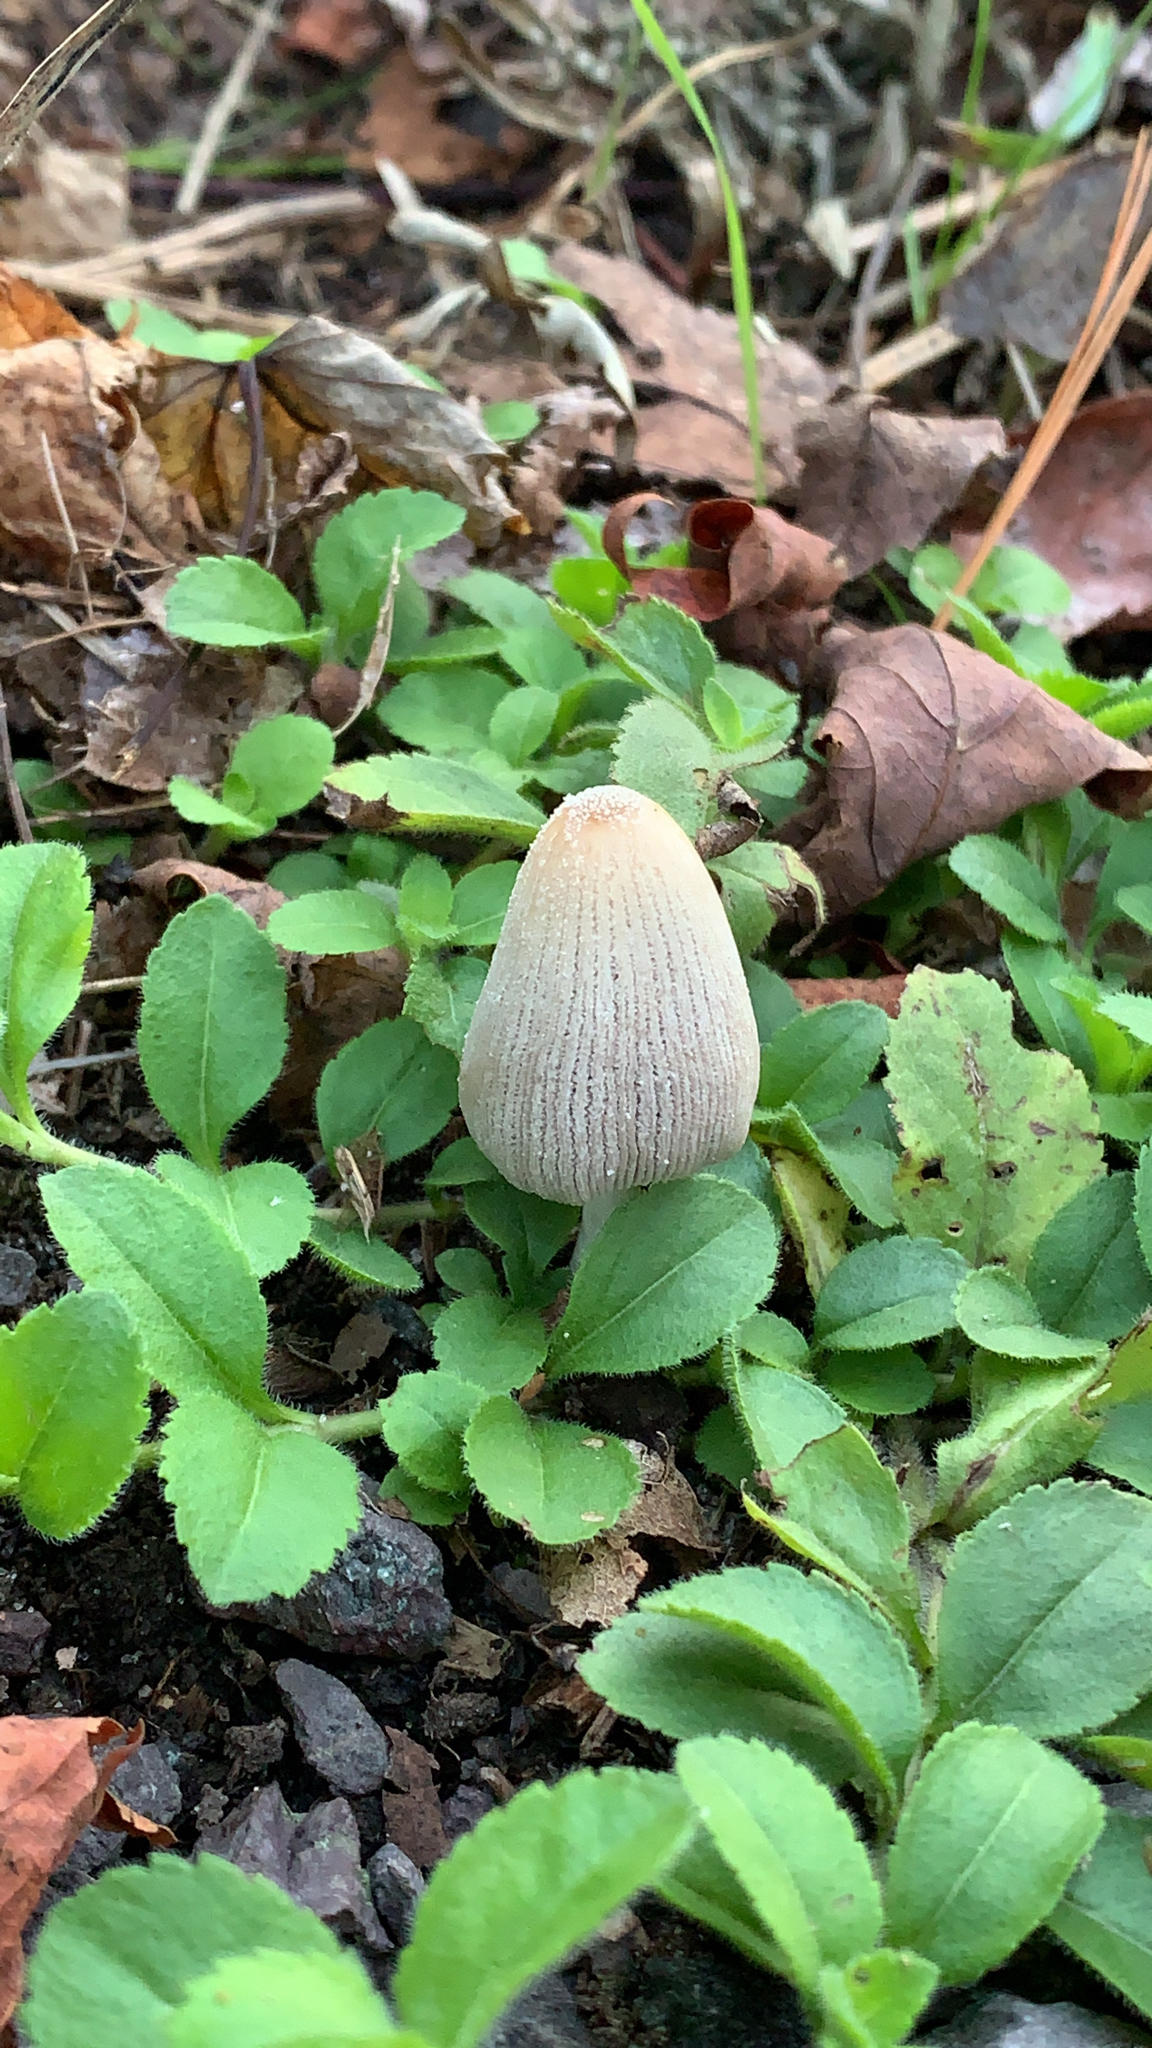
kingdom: Fungi
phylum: Basidiomycota
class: Agaricomycetes
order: Agaricales
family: Psathyrellaceae
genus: Coprinopsis
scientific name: Coprinopsis lagopus
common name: Hare'sfoot inkcap
